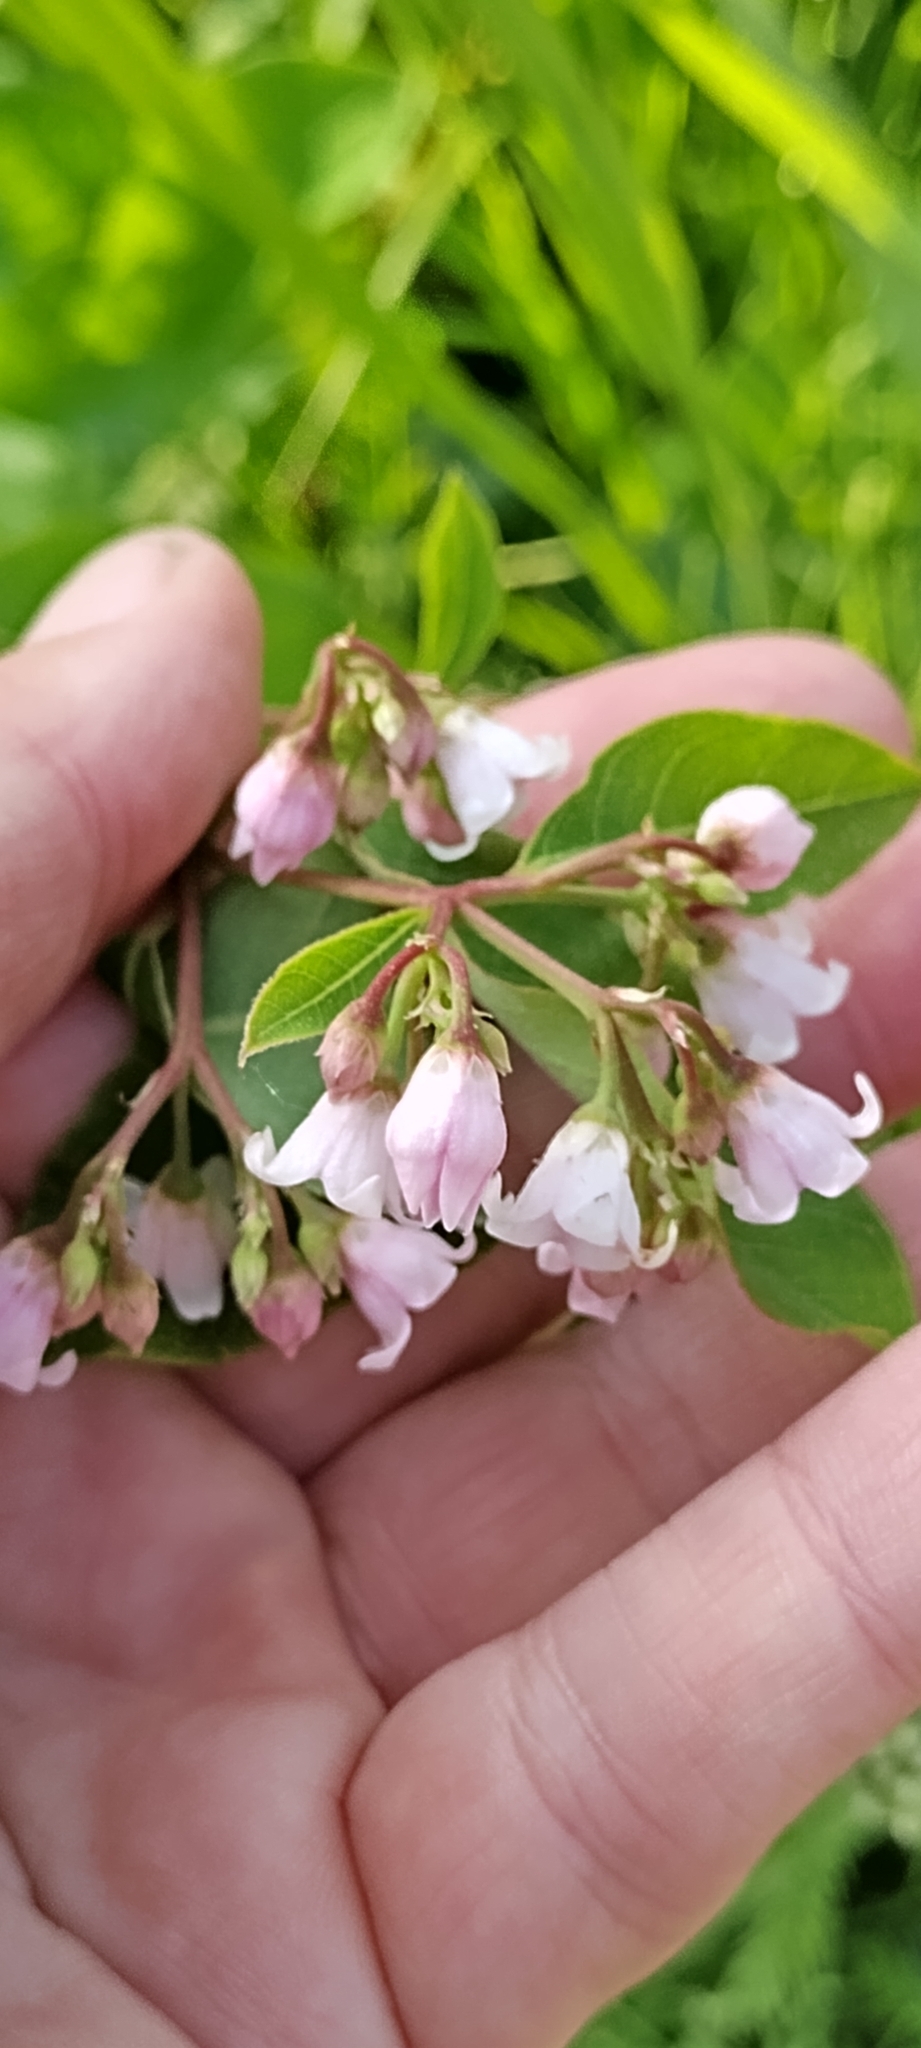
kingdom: Plantae
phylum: Tracheophyta
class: Magnoliopsida
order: Gentianales
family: Apocynaceae
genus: Apocynum
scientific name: Apocynum androsaemifolium
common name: Spreading dogbane
